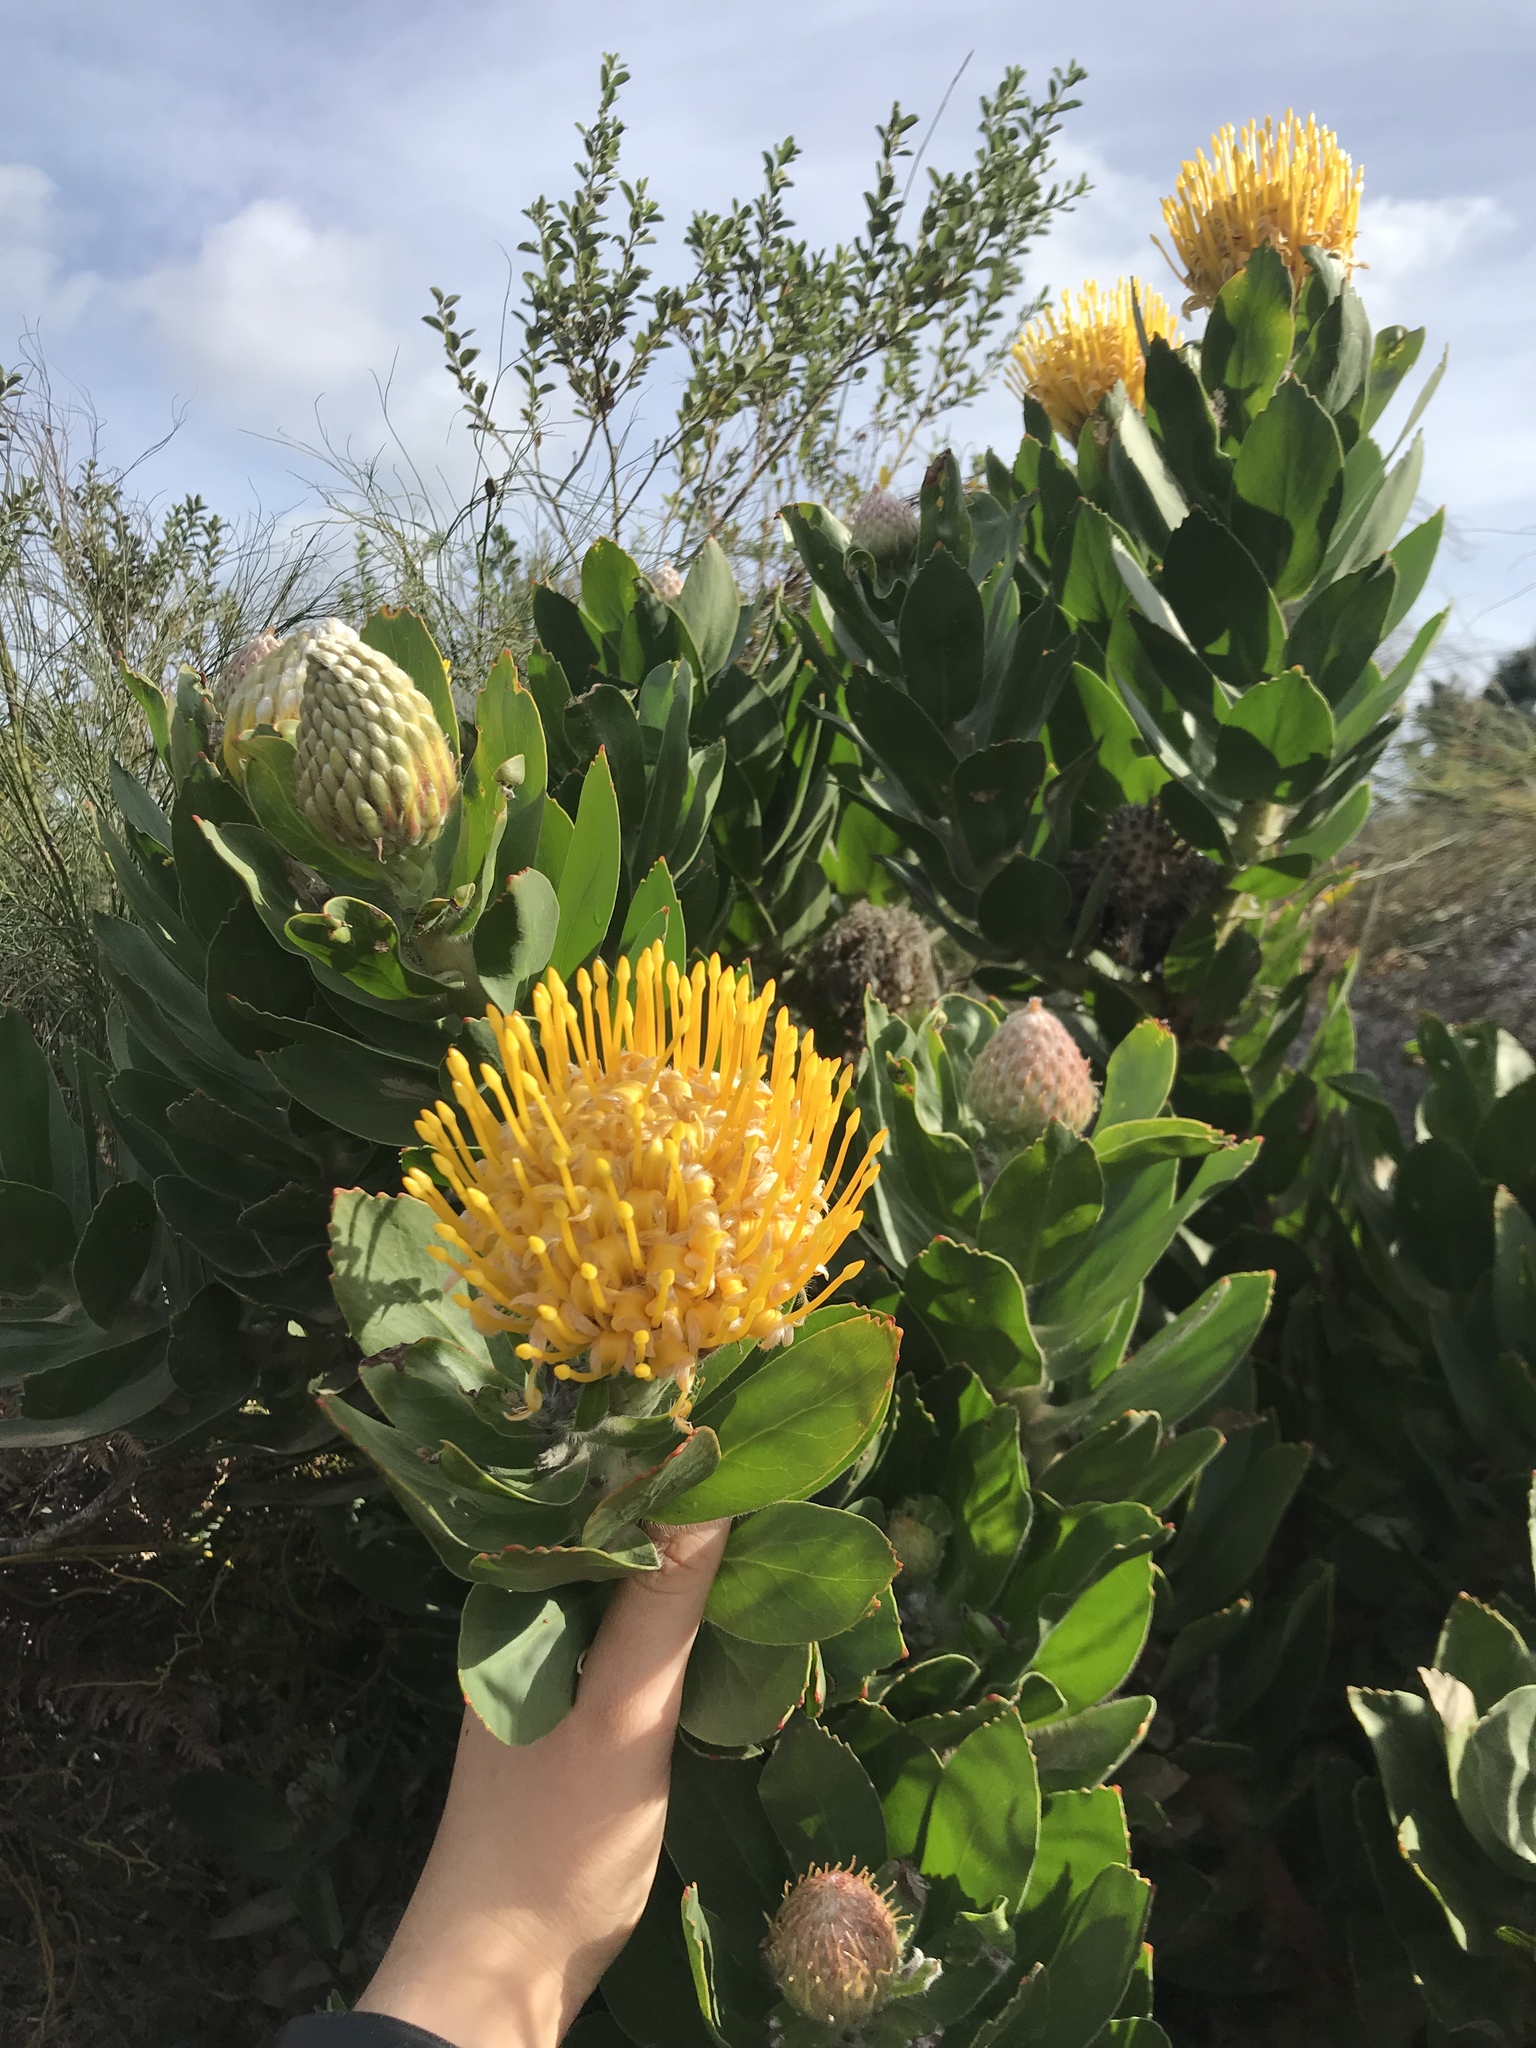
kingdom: Plantae
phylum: Tracheophyta
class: Magnoliopsida
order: Proteales
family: Proteaceae
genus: Leucospermum
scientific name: Leucospermum conocarpodendron
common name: Tree pincushion
